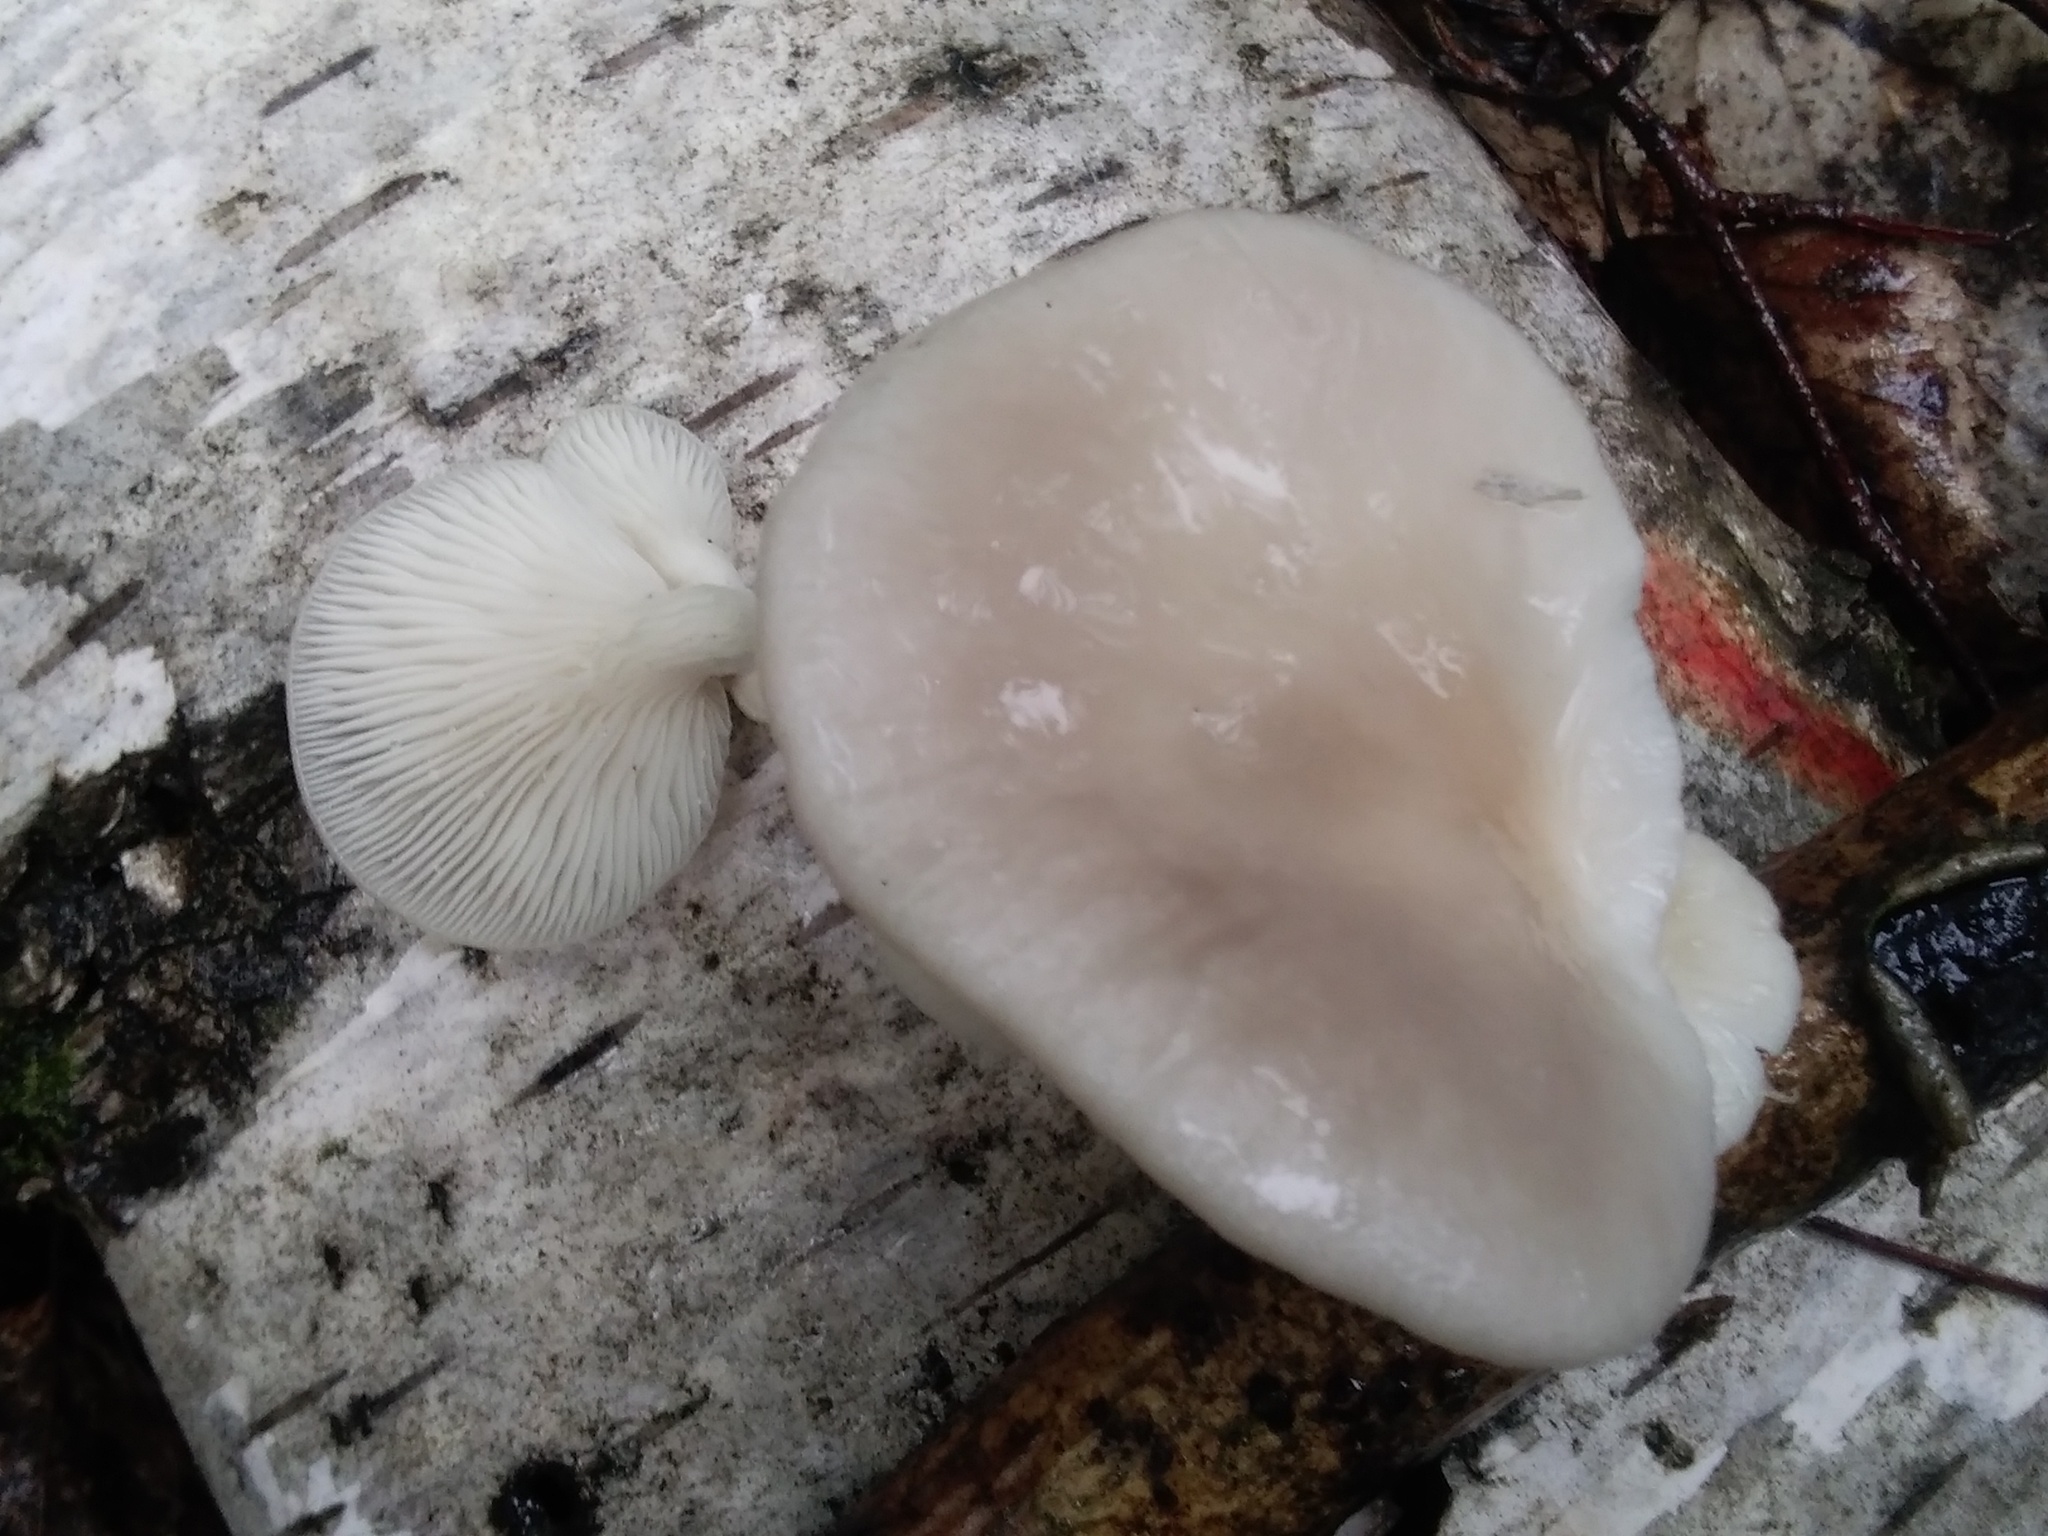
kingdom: Fungi
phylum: Basidiomycota
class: Agaricomycetes
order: Agaricales
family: Pleurotaceae
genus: Pleurotus
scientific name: Pleurotus pulmonarius
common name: Pale oyster
